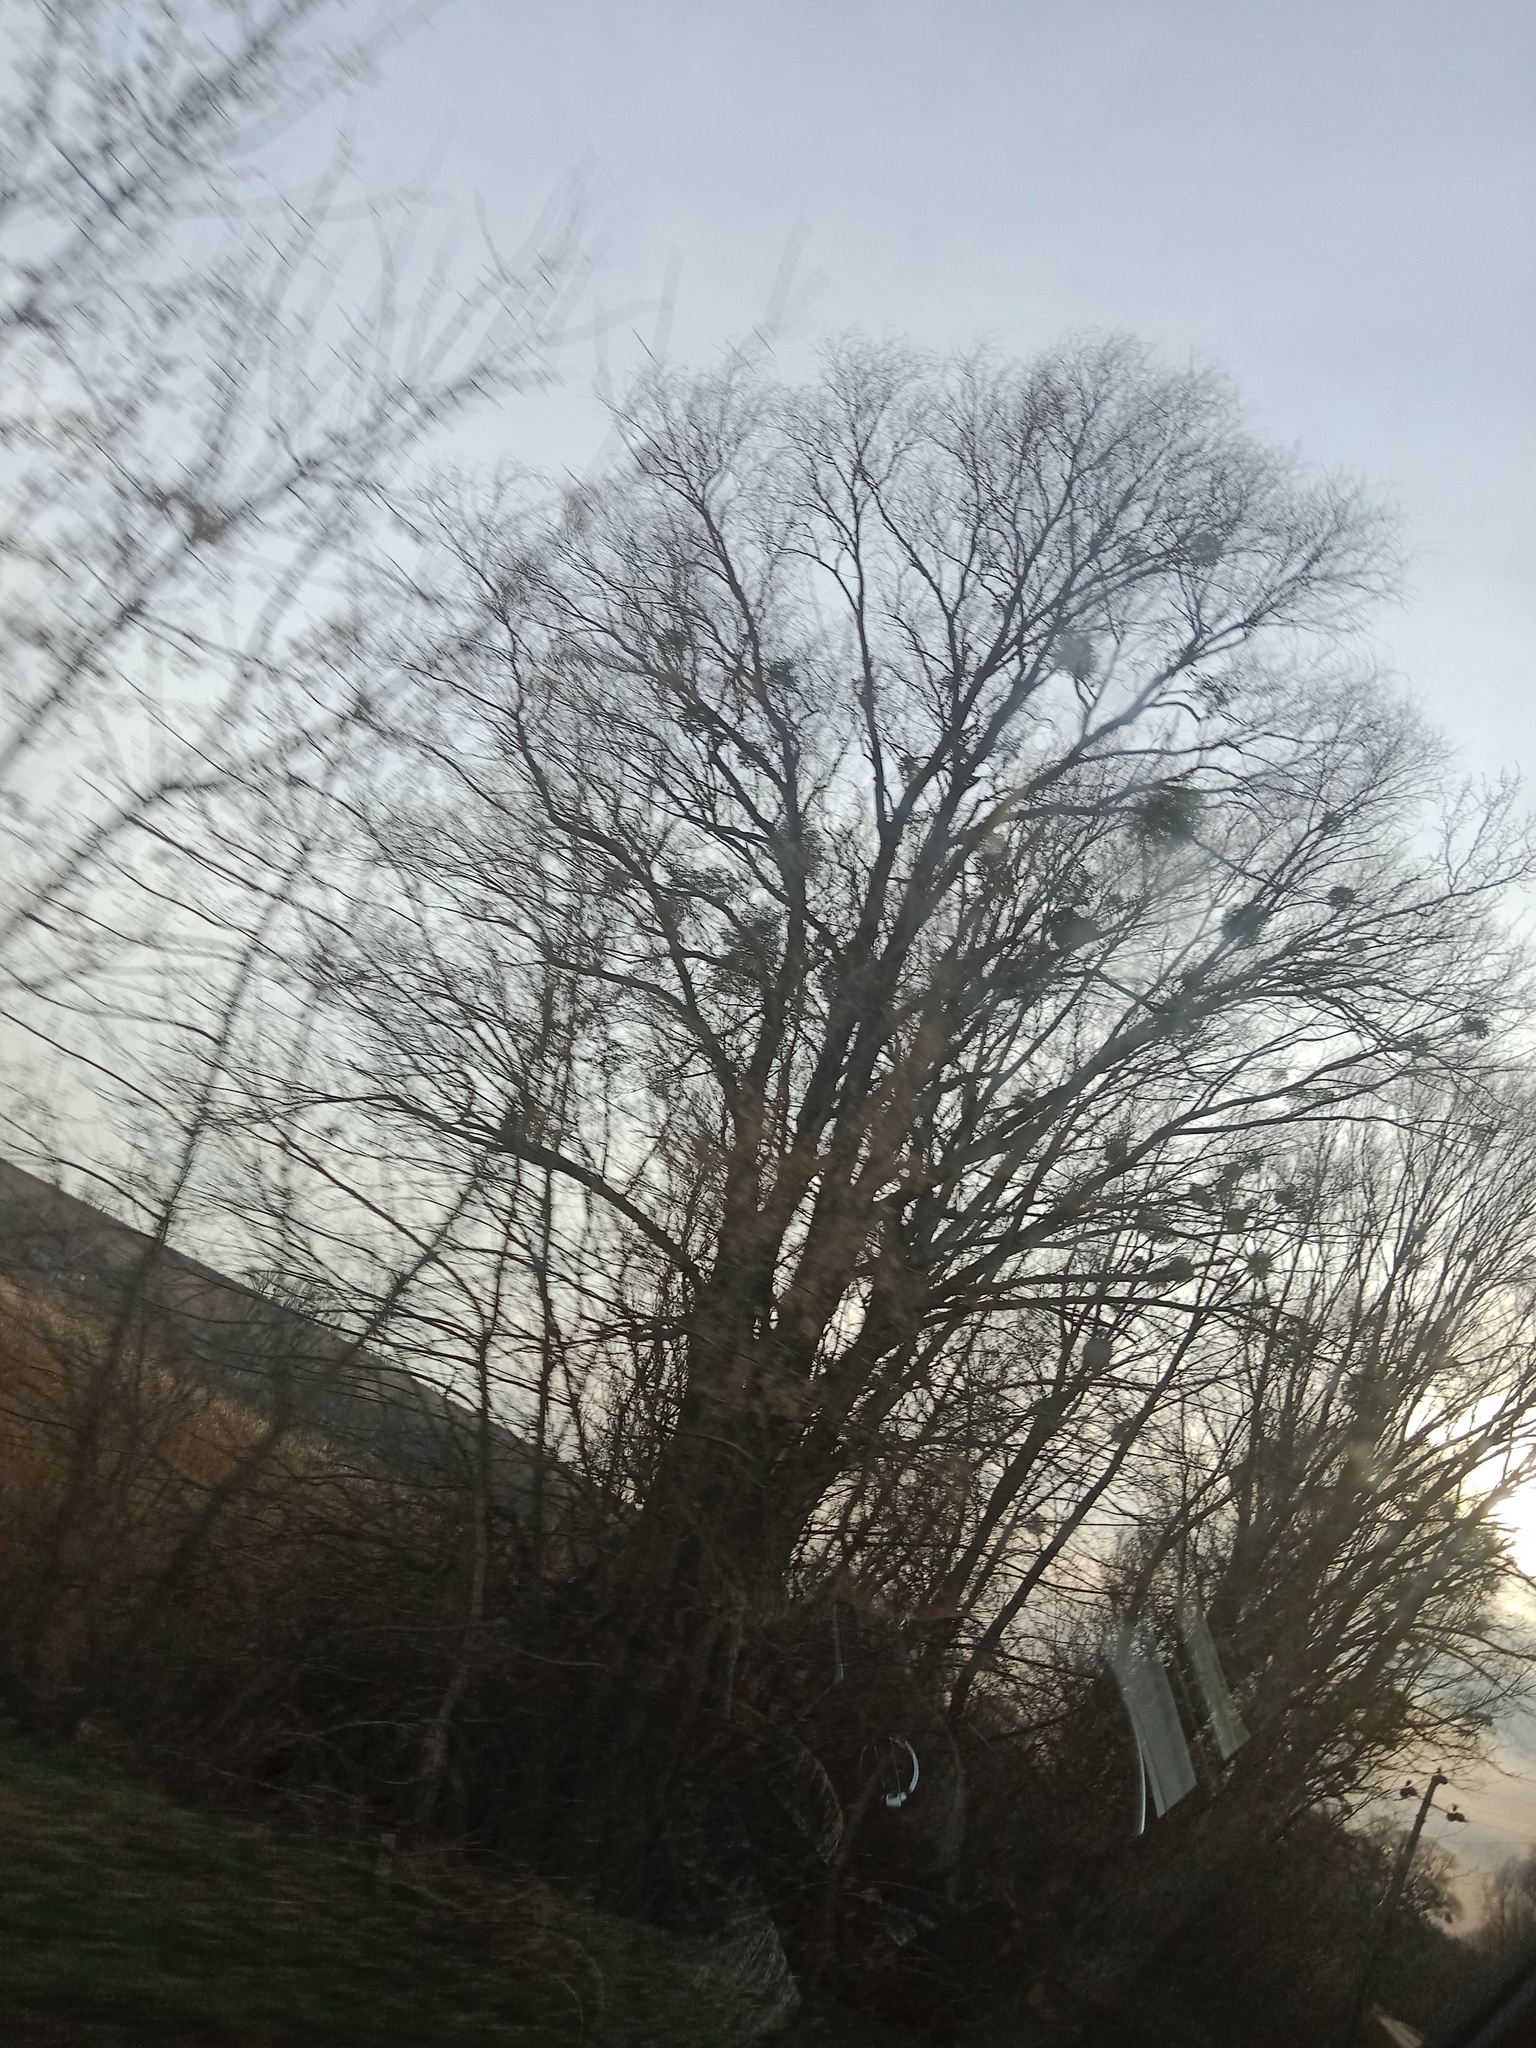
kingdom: Plantae
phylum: Tracheophyta
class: Magnoliopsida
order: Santalales
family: Viscaceae
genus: Viscum
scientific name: Viscum album
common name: Mistletoe
